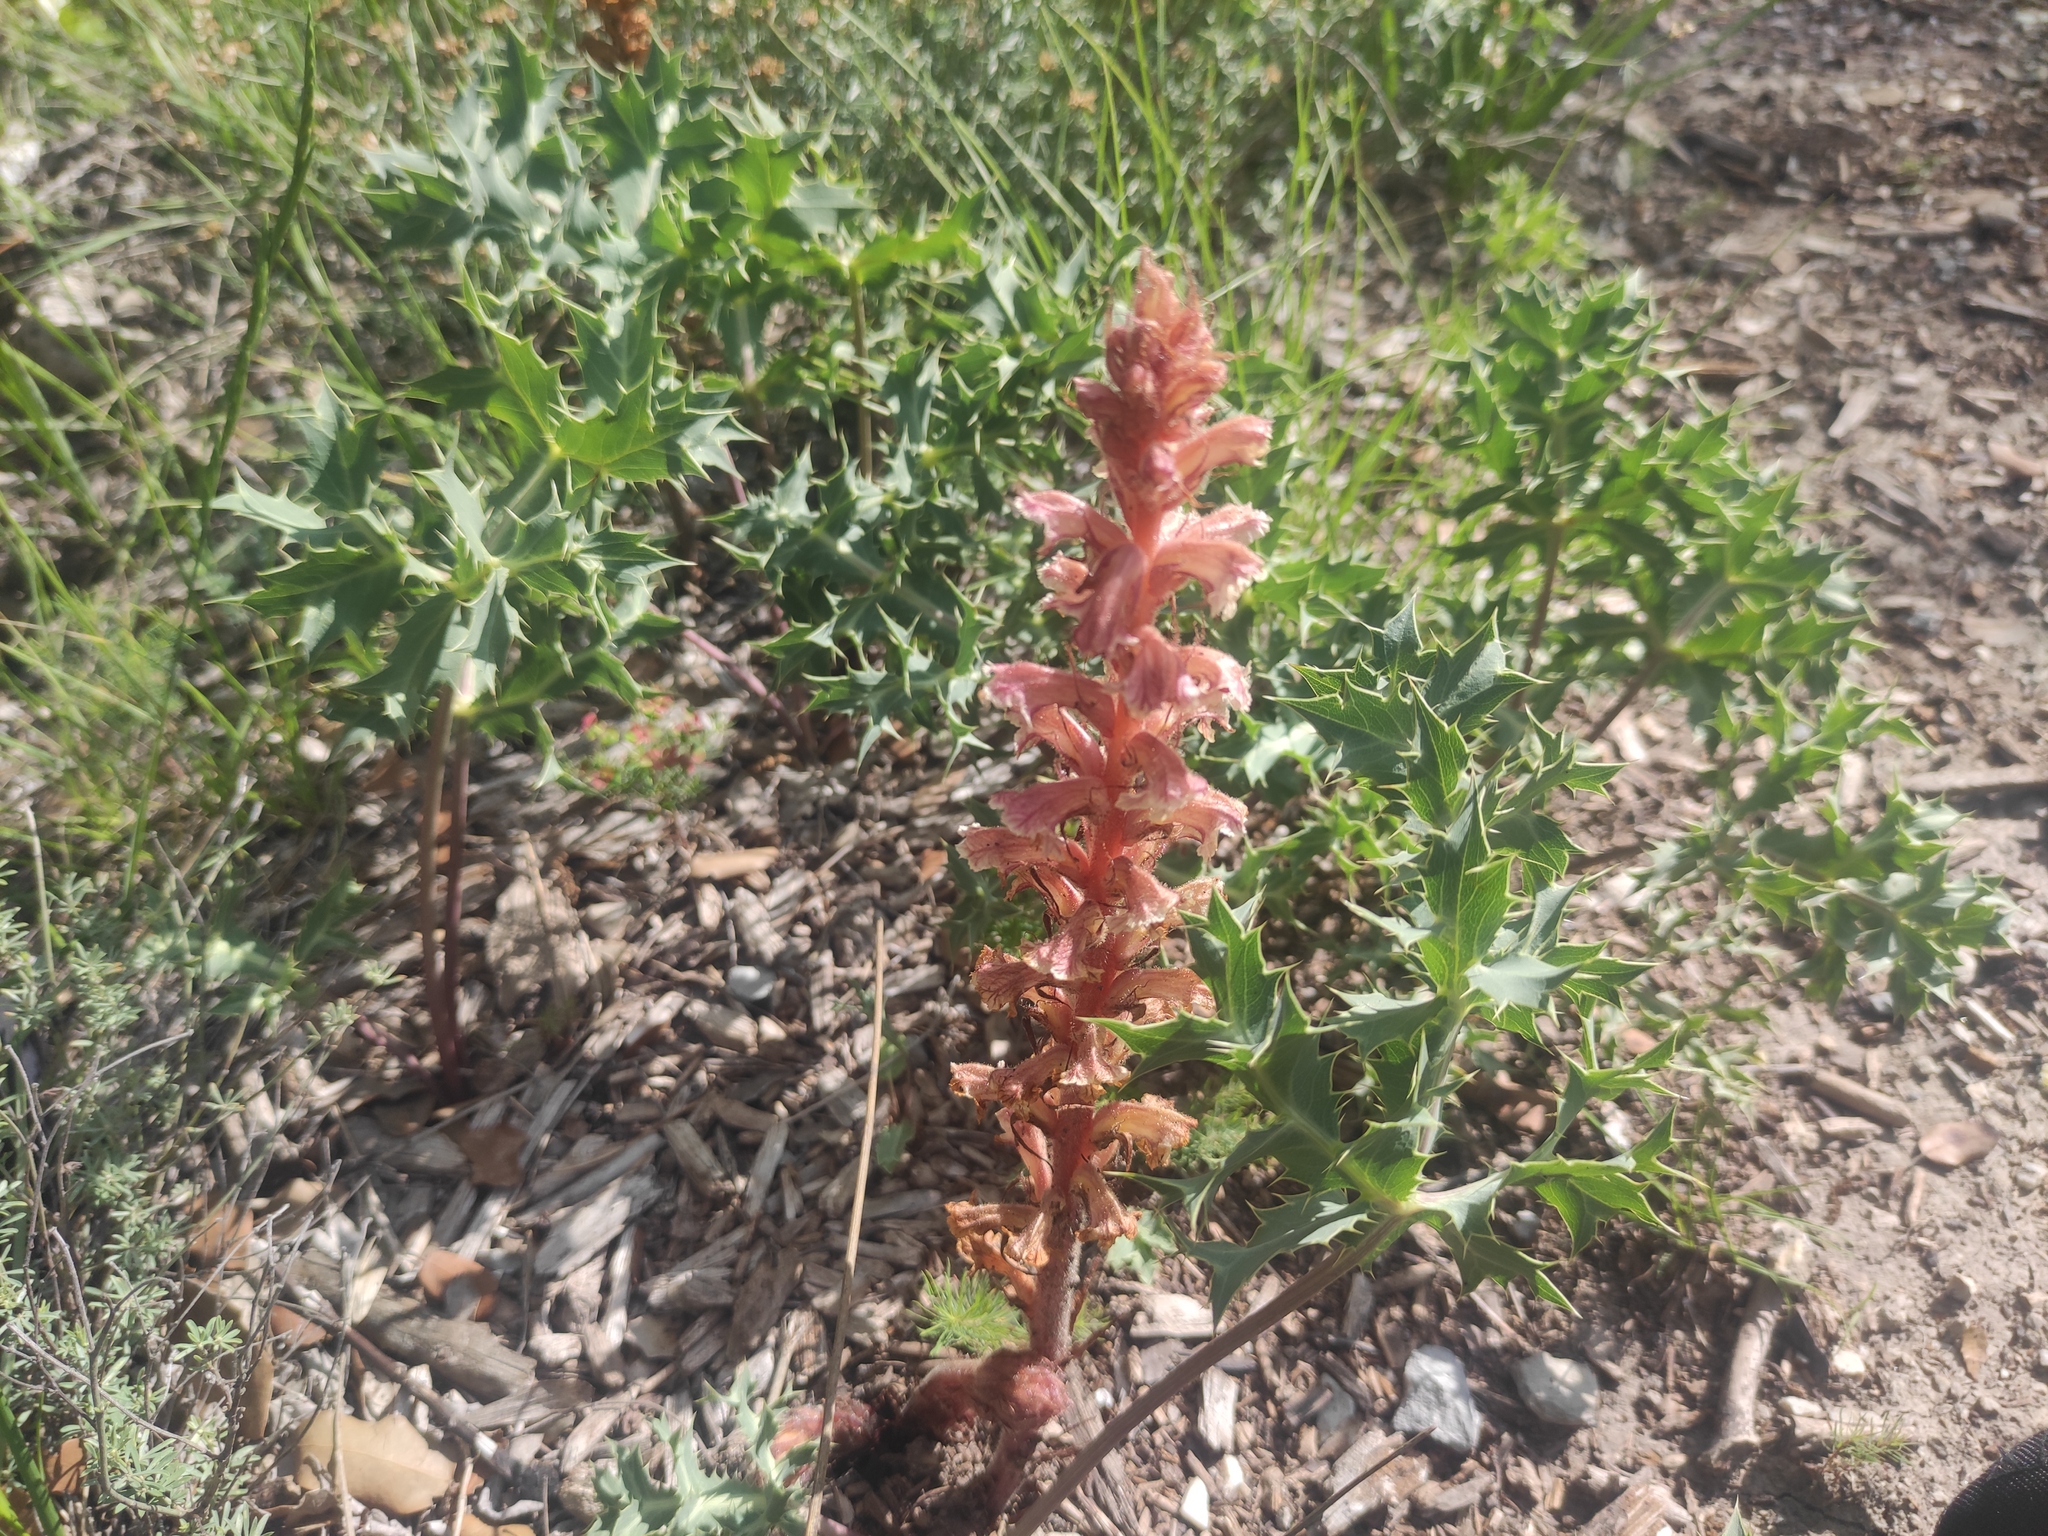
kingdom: Plantae
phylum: Tracheophyta
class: Magnoliopsida
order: Lamiales
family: Orobanchaceae
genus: Orobanche
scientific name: Orobanche amethystea
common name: Amethyst broomrape
